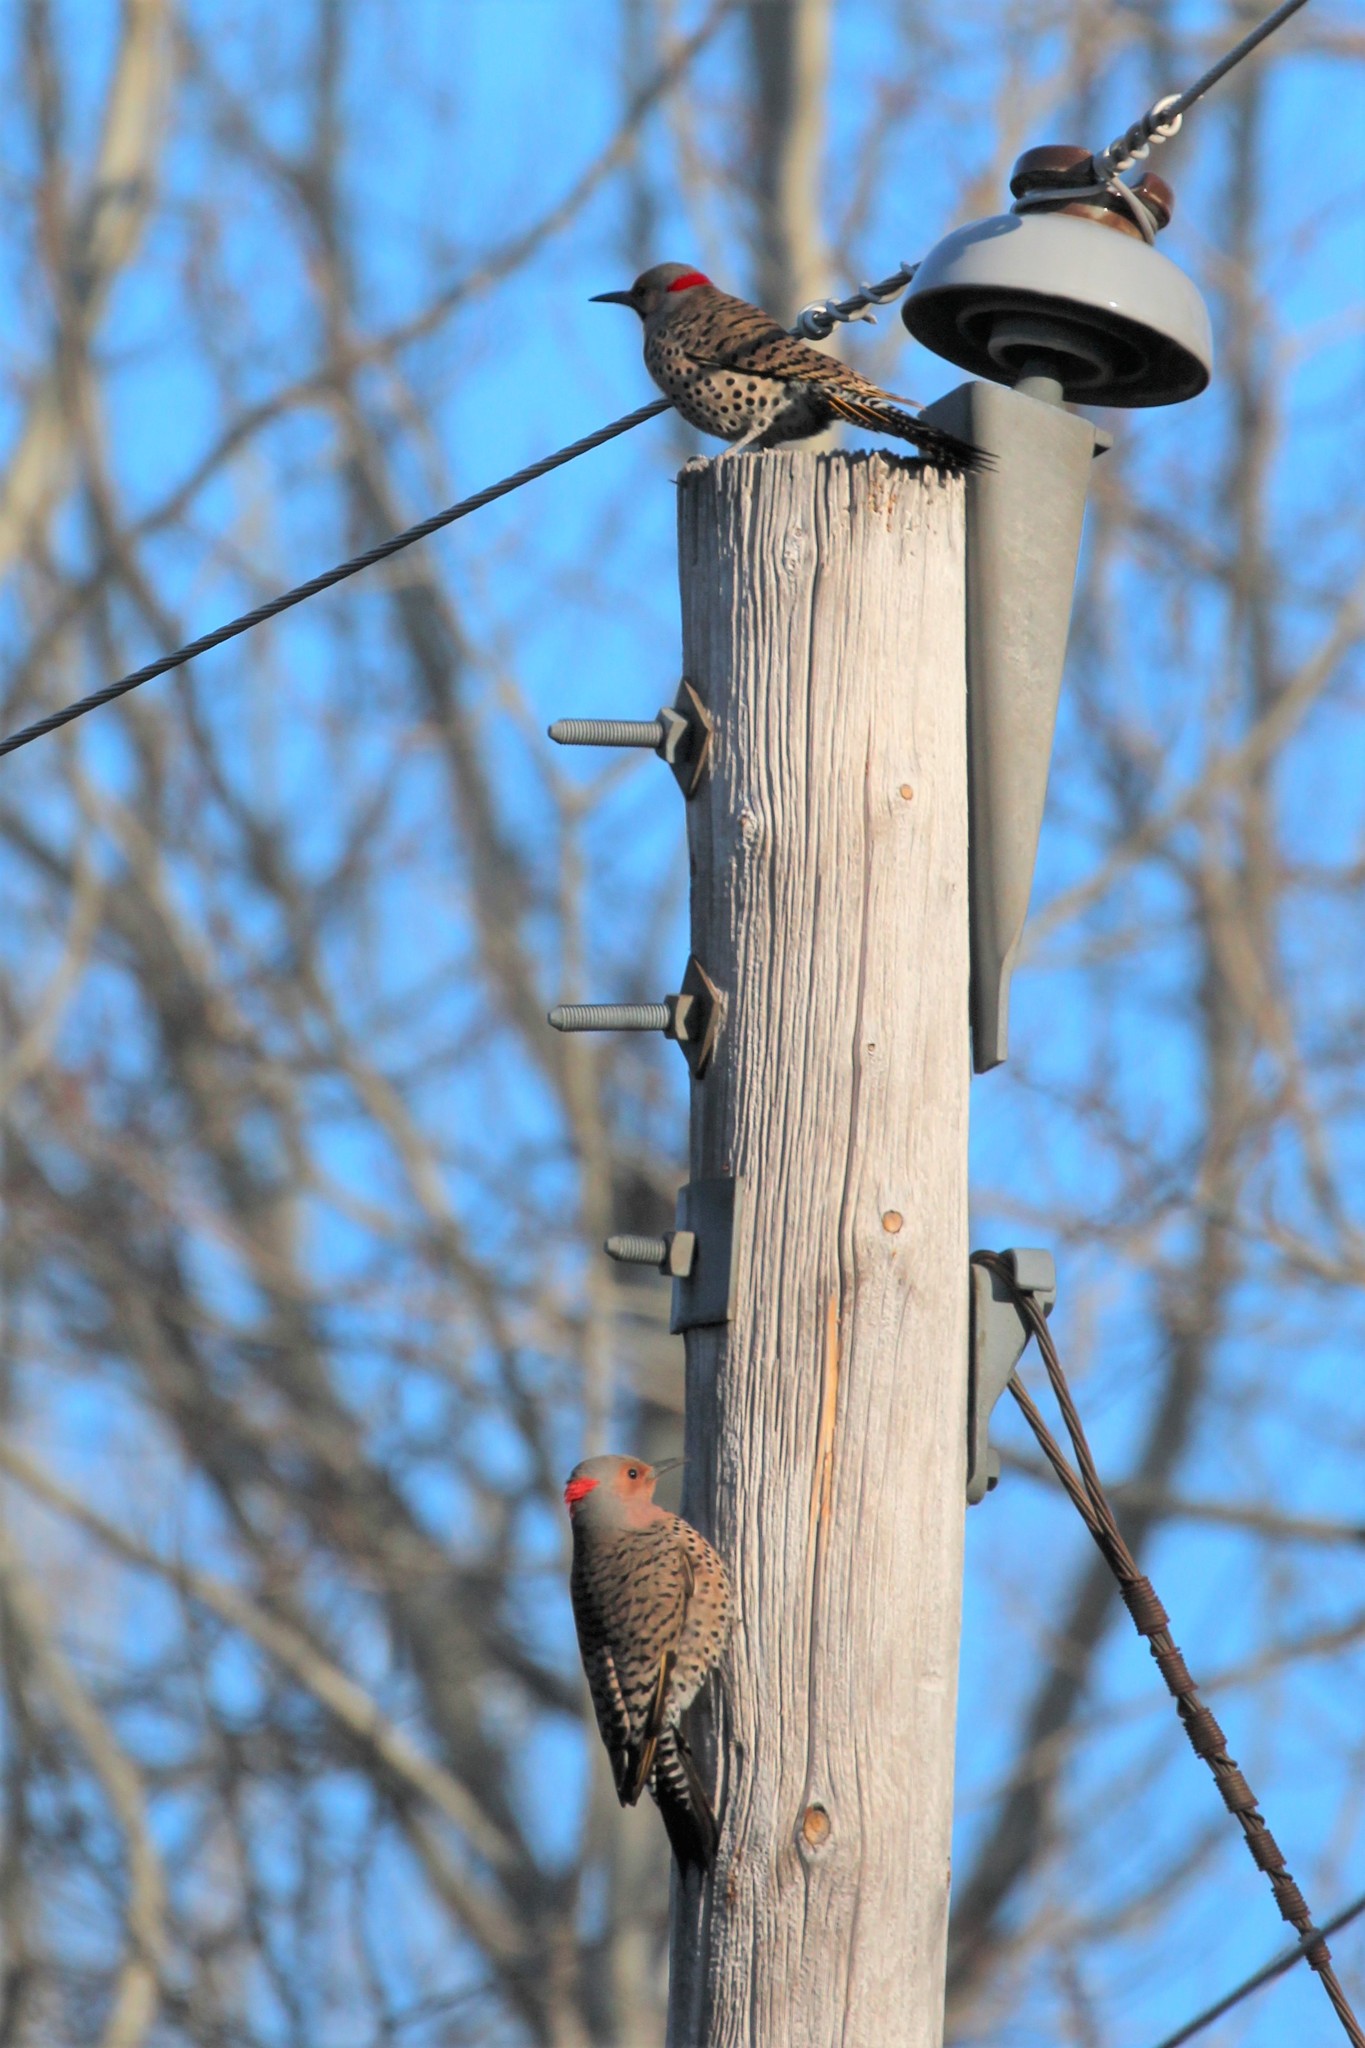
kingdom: Animalia
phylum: Chordata
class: Aves
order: Piciformes
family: Picidae
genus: Colaptes
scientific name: Colaptes auratus
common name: Northern flicker
